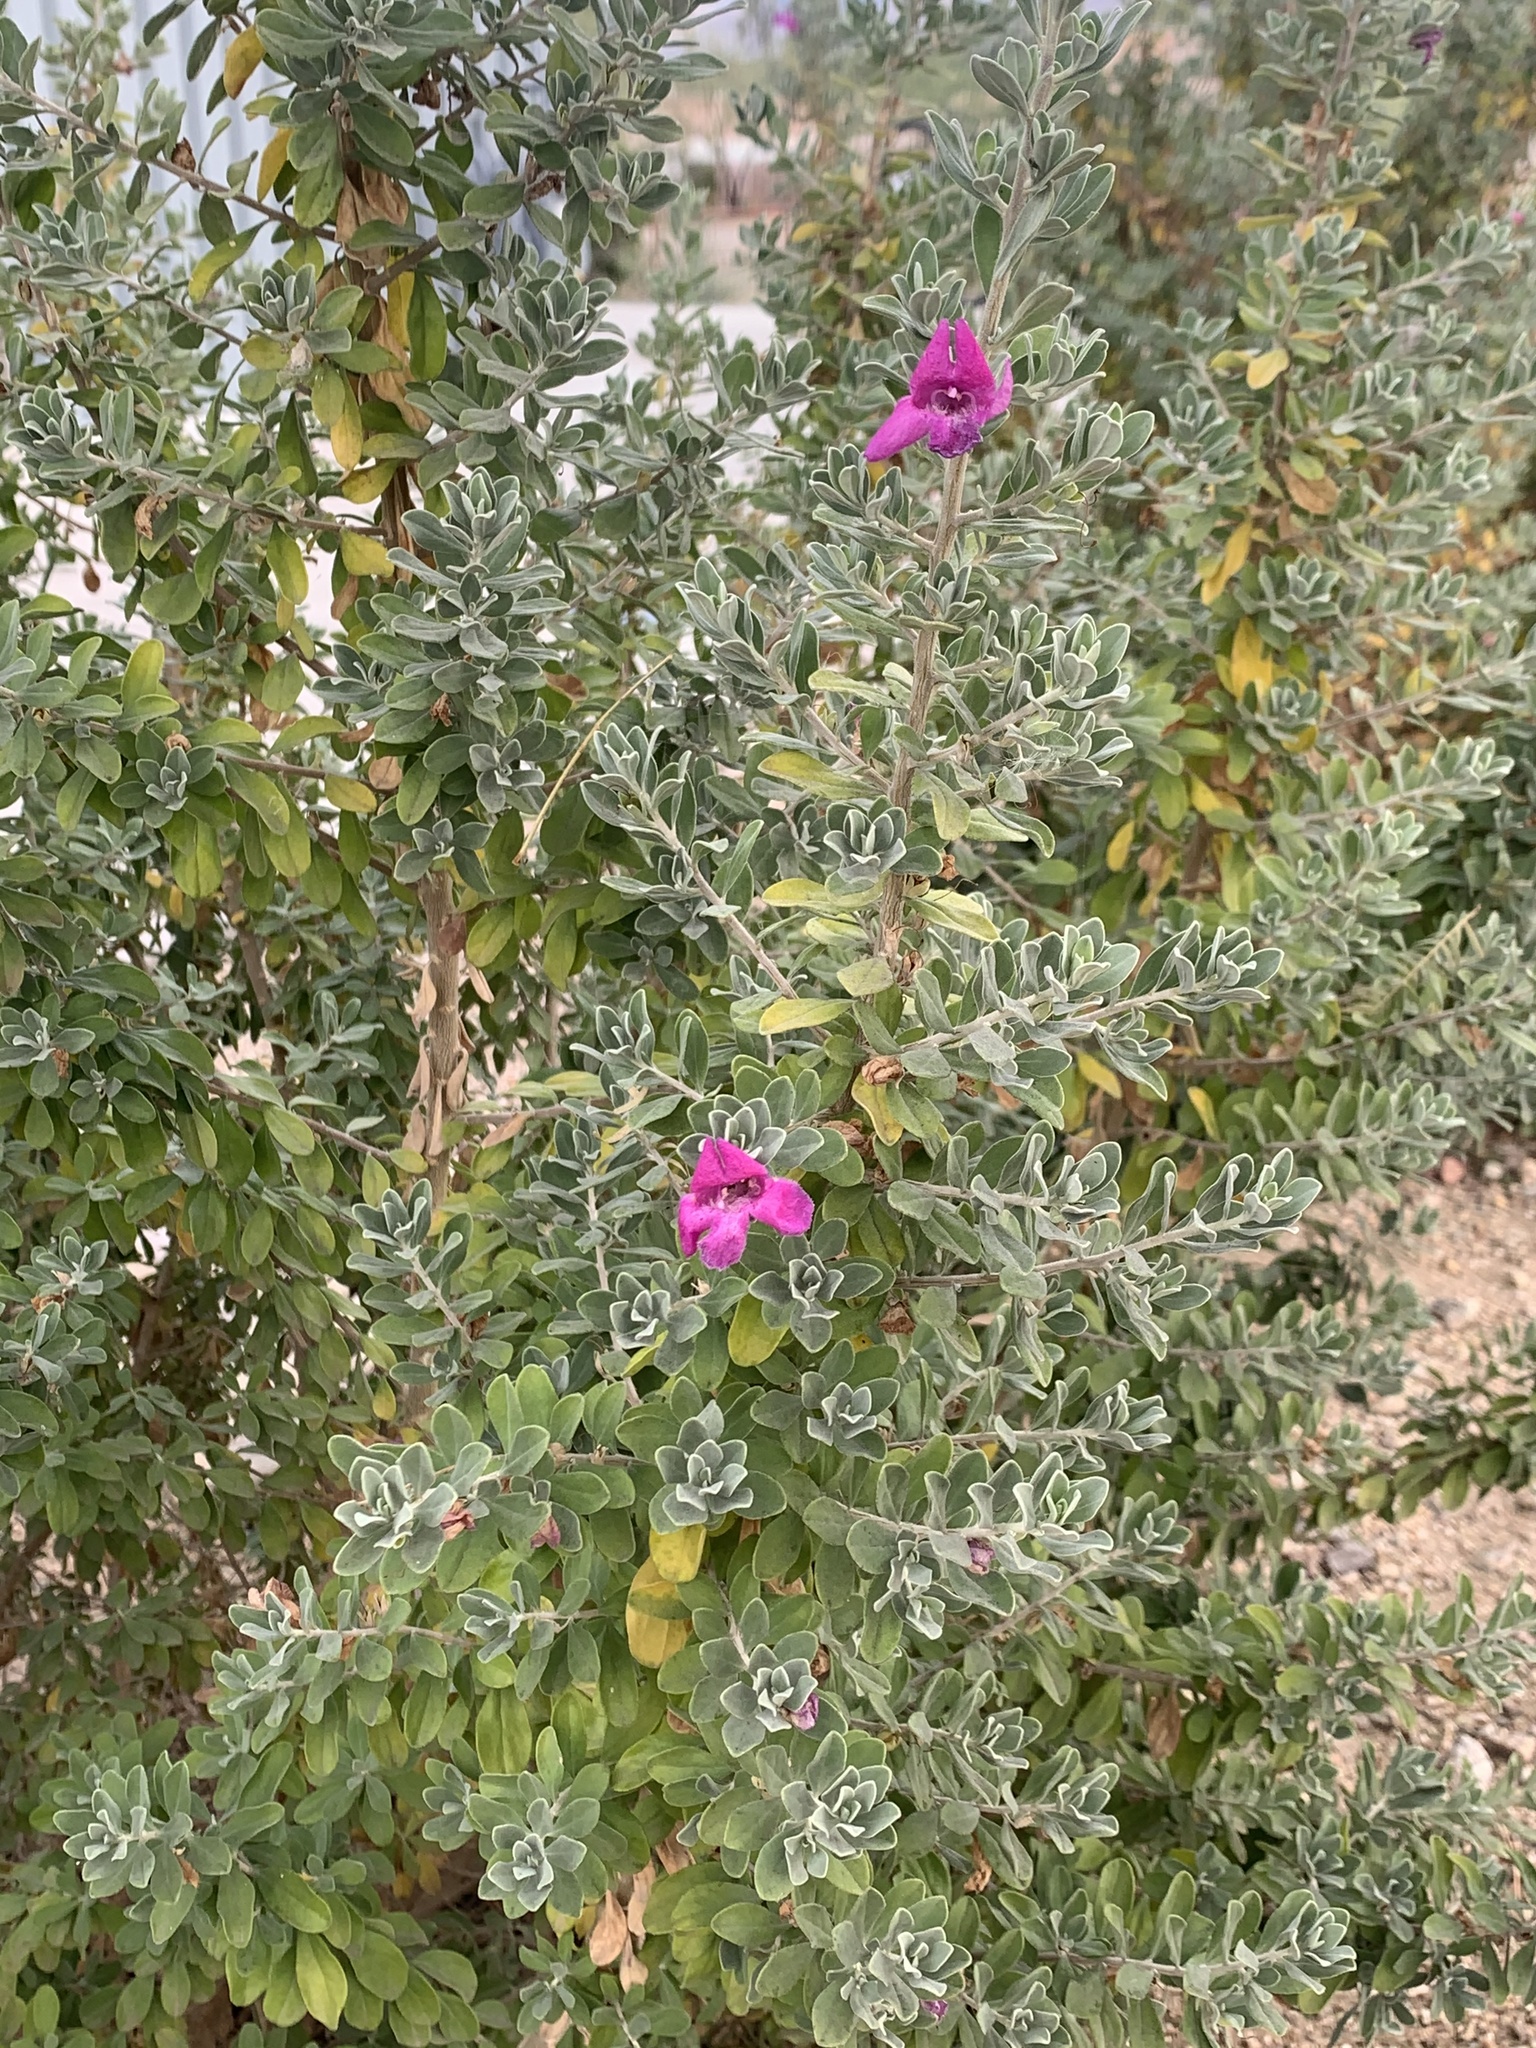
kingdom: Plantae
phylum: Tracheophyta
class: Magnoliopsida
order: Solanales
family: Solanaceae
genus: Petunia
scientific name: Petunia integrifolia
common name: Violet-flower petunia
